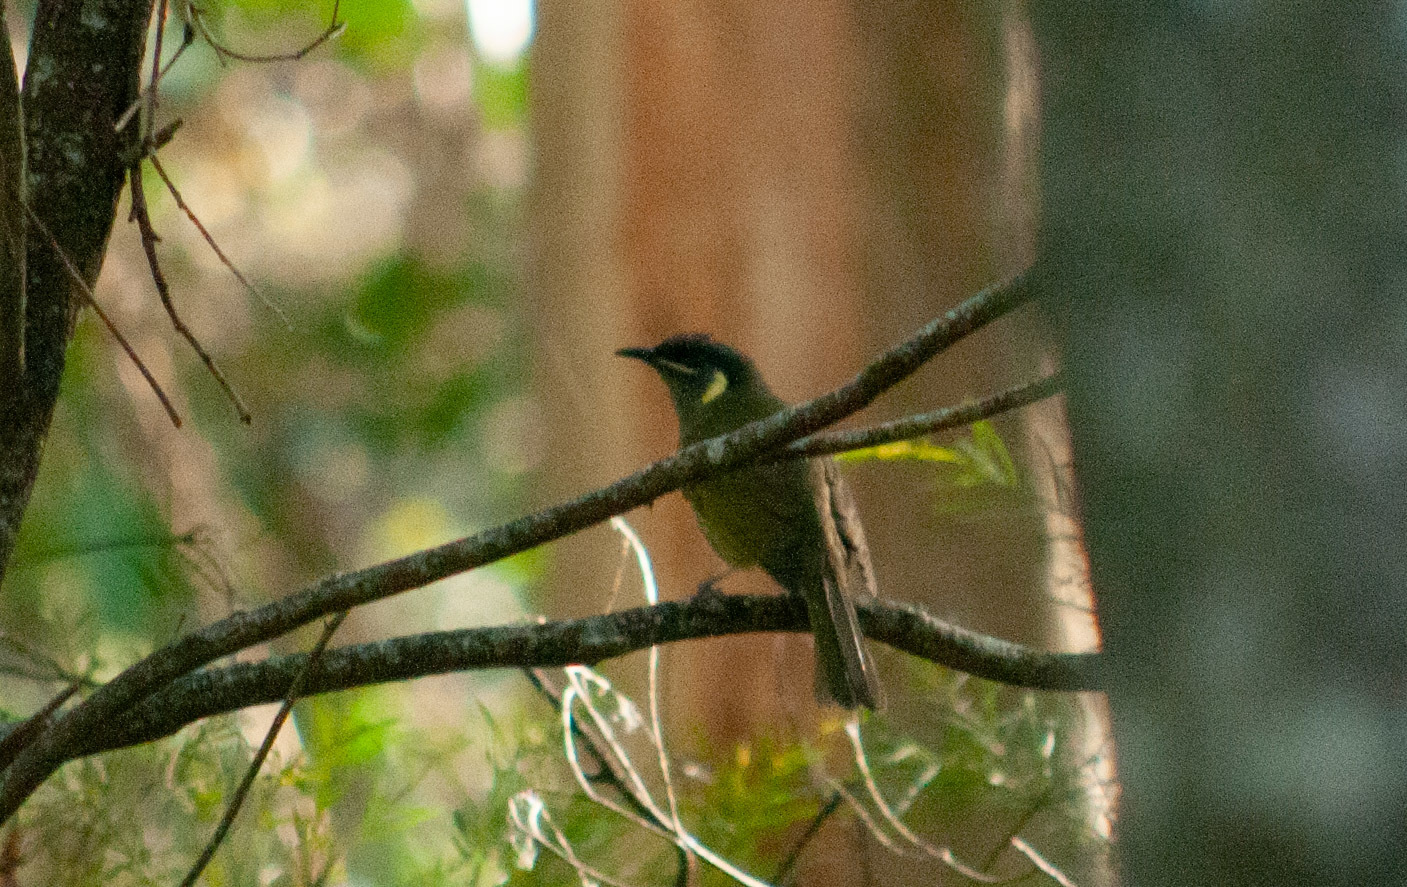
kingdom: Animalia
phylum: Chordata
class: Aves
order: Passeriformes
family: Meliphagidae
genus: Meliphaga
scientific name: Meliphaga lewinii
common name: Lewin's honeyeater
